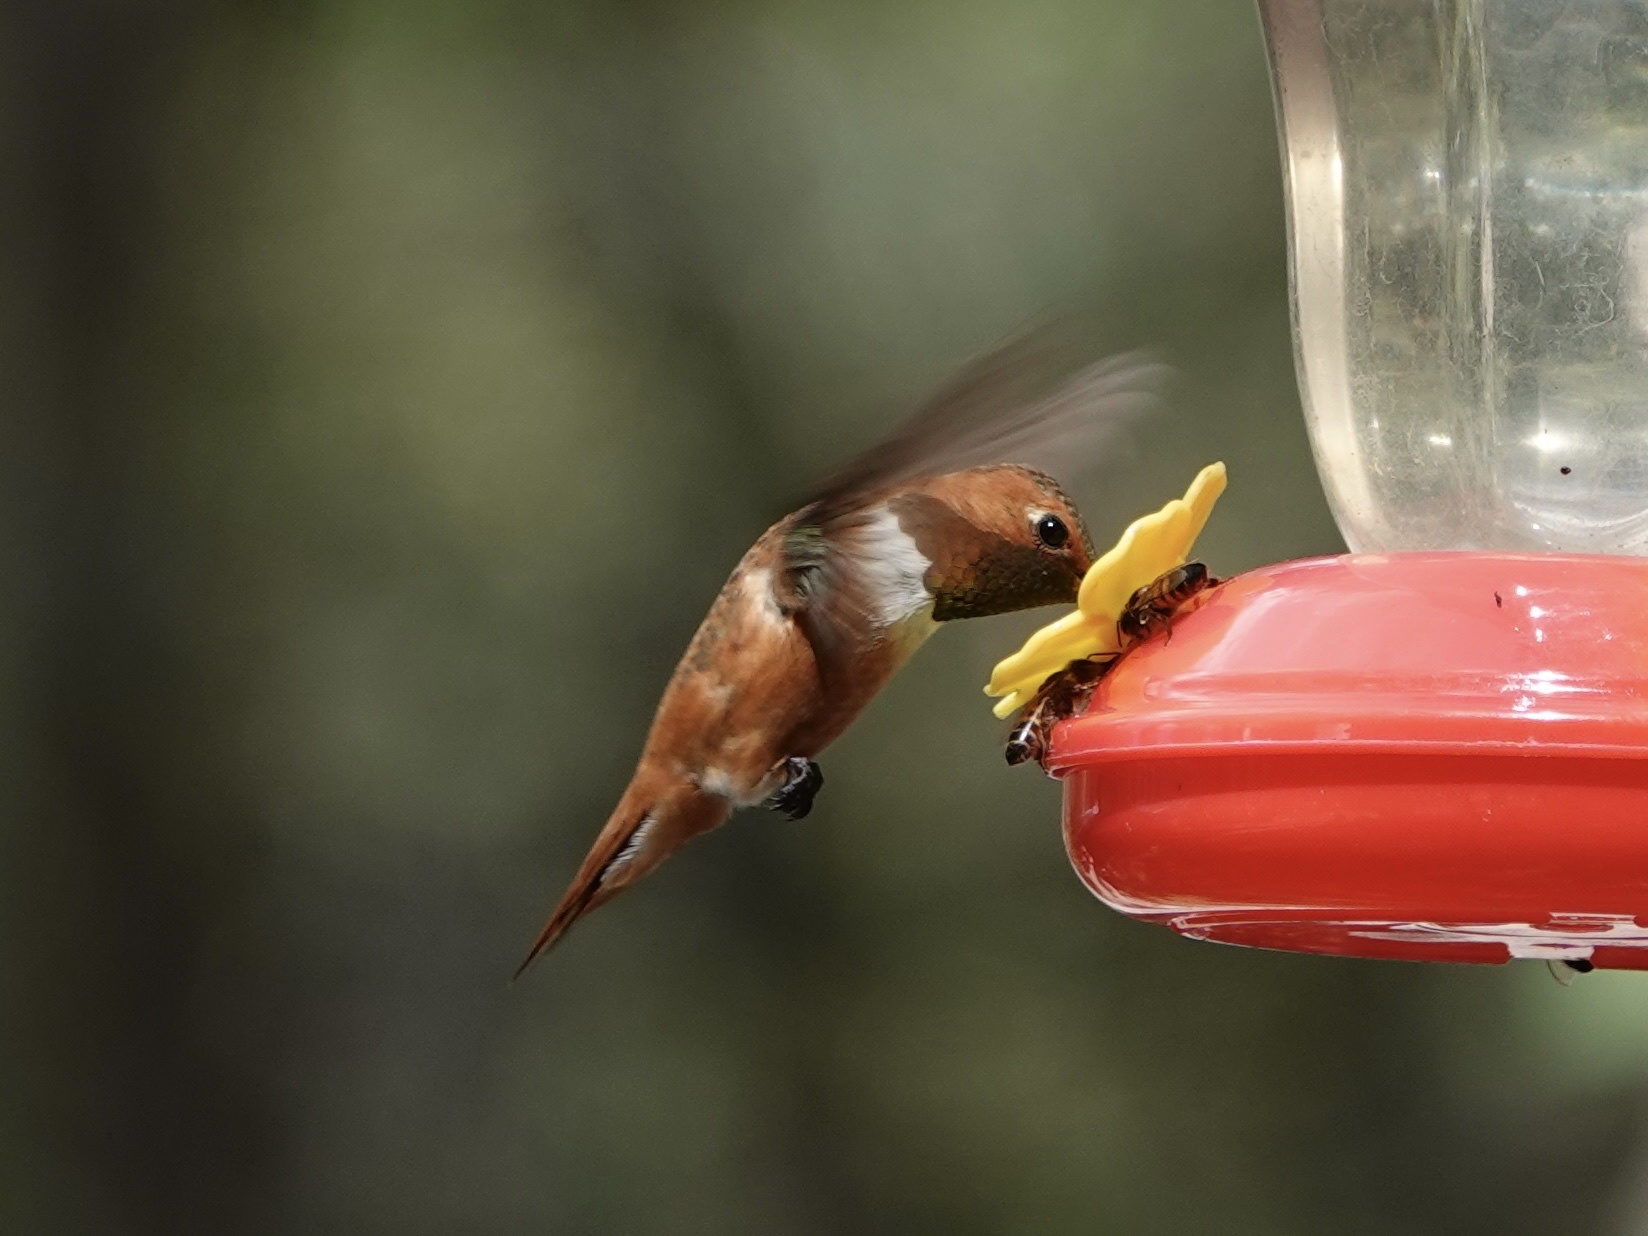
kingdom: Animalia
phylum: Chordata
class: Aves
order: Apodiformes
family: Trochilidae
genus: Selasphorus
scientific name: Selasphorus rufus
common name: Rufous hummingbird
